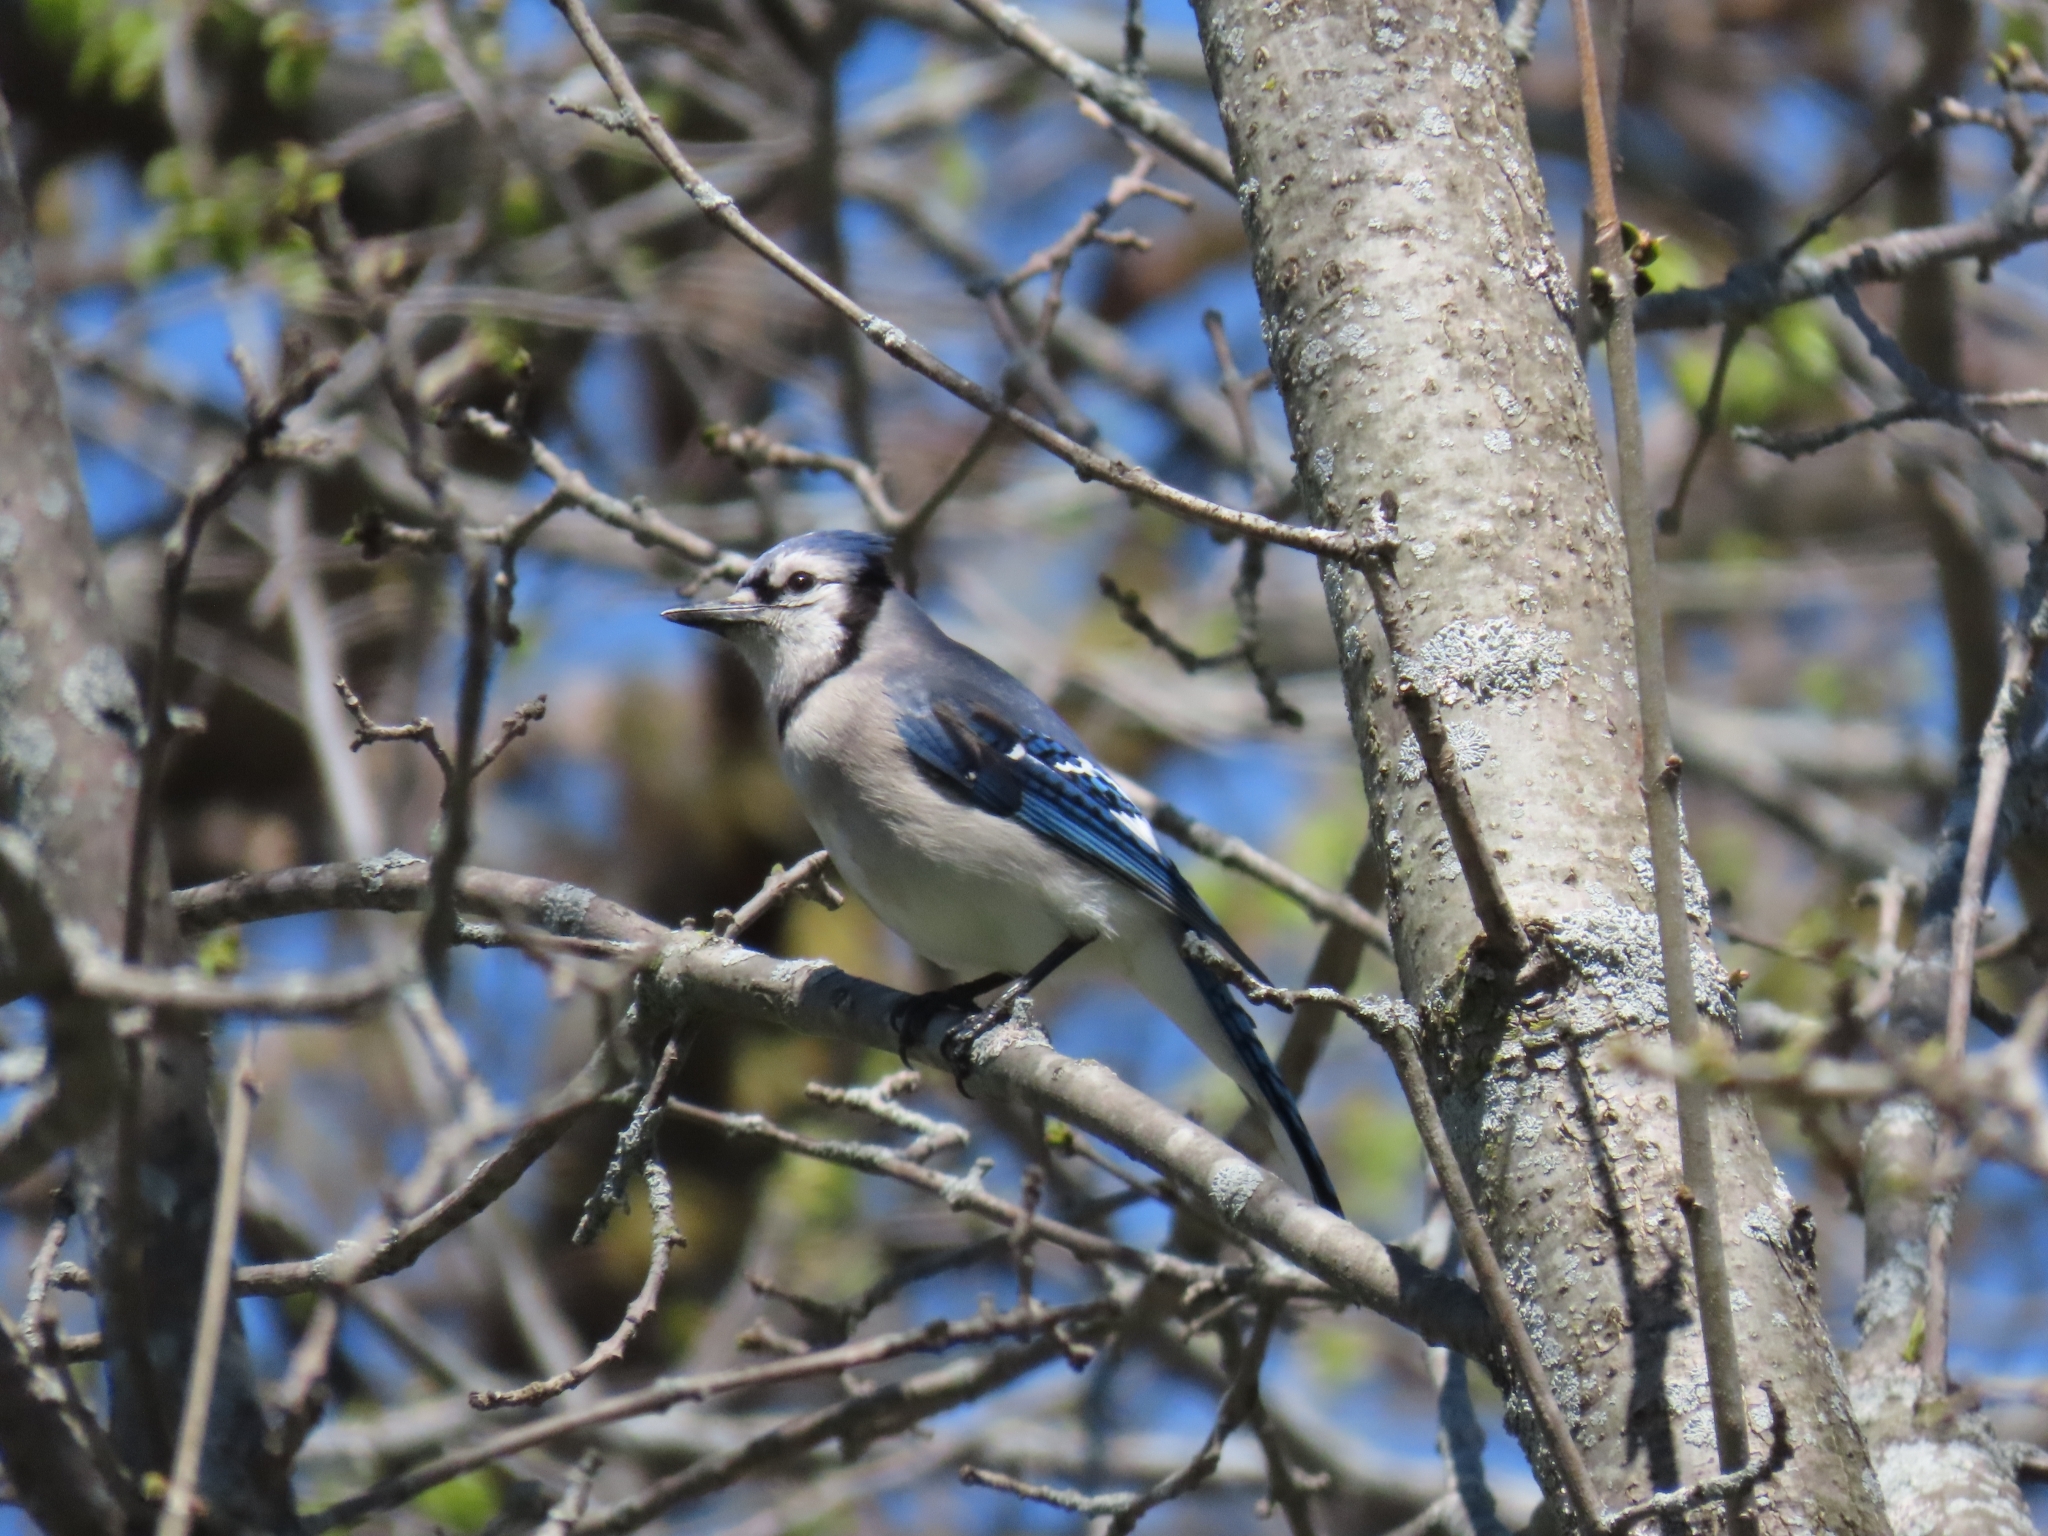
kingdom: Animalia
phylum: Chordata
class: Aves
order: Passeriformes
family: Corvidae
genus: Cyanocitta
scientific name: Cyanocitta cristata
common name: Blue jay
